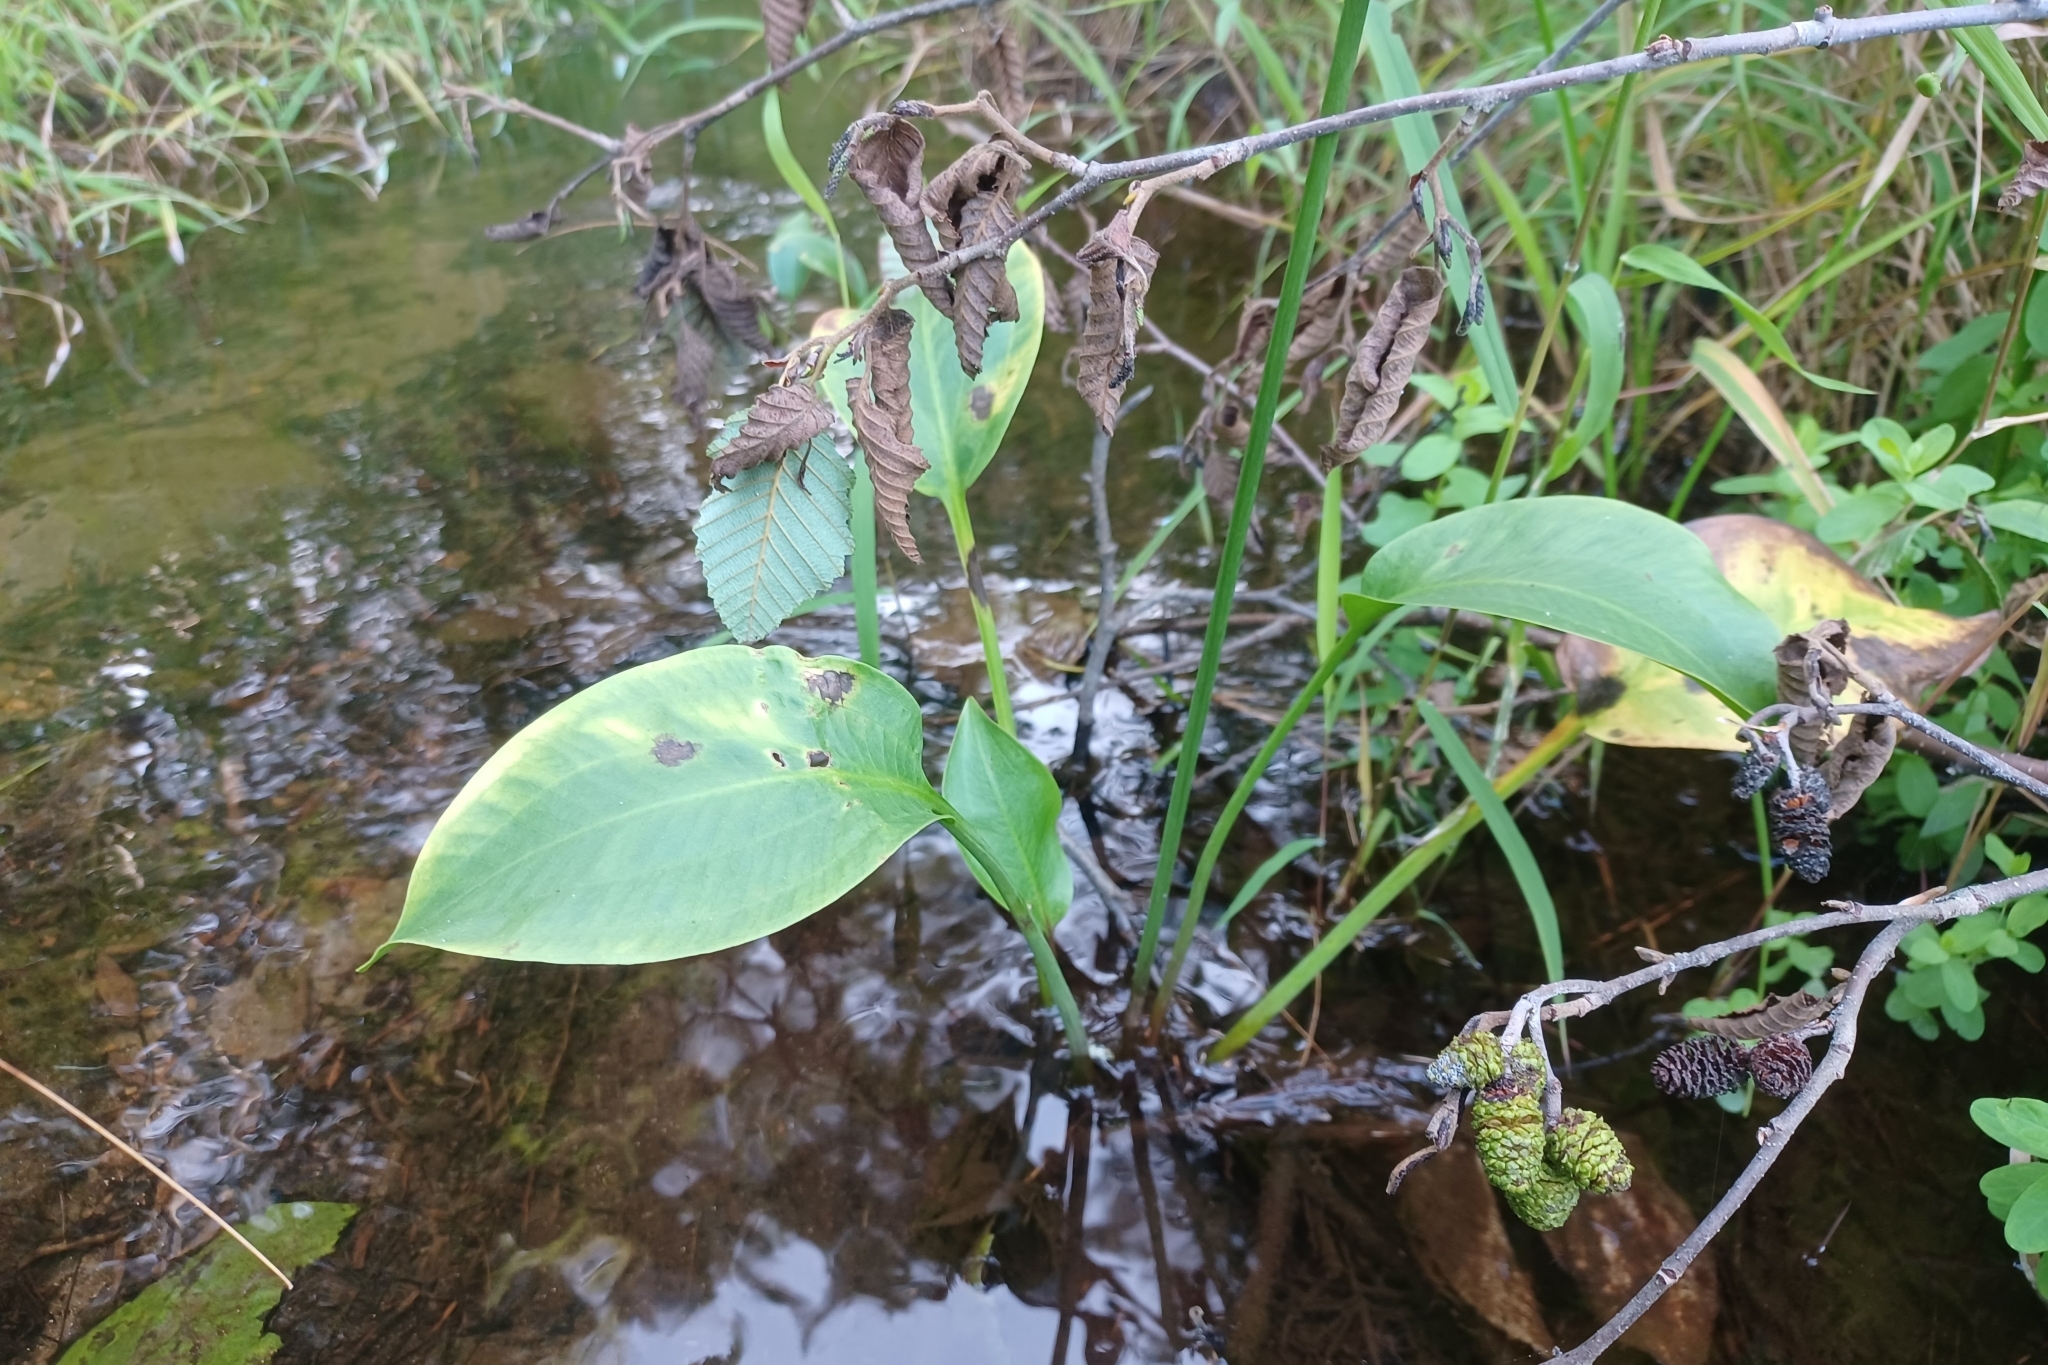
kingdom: Plantae
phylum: Tracheophyta
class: Liliopsida
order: Alismatales
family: Alismataceae
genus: Alisma
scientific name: Alisma triviale
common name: Northern water-plantain
